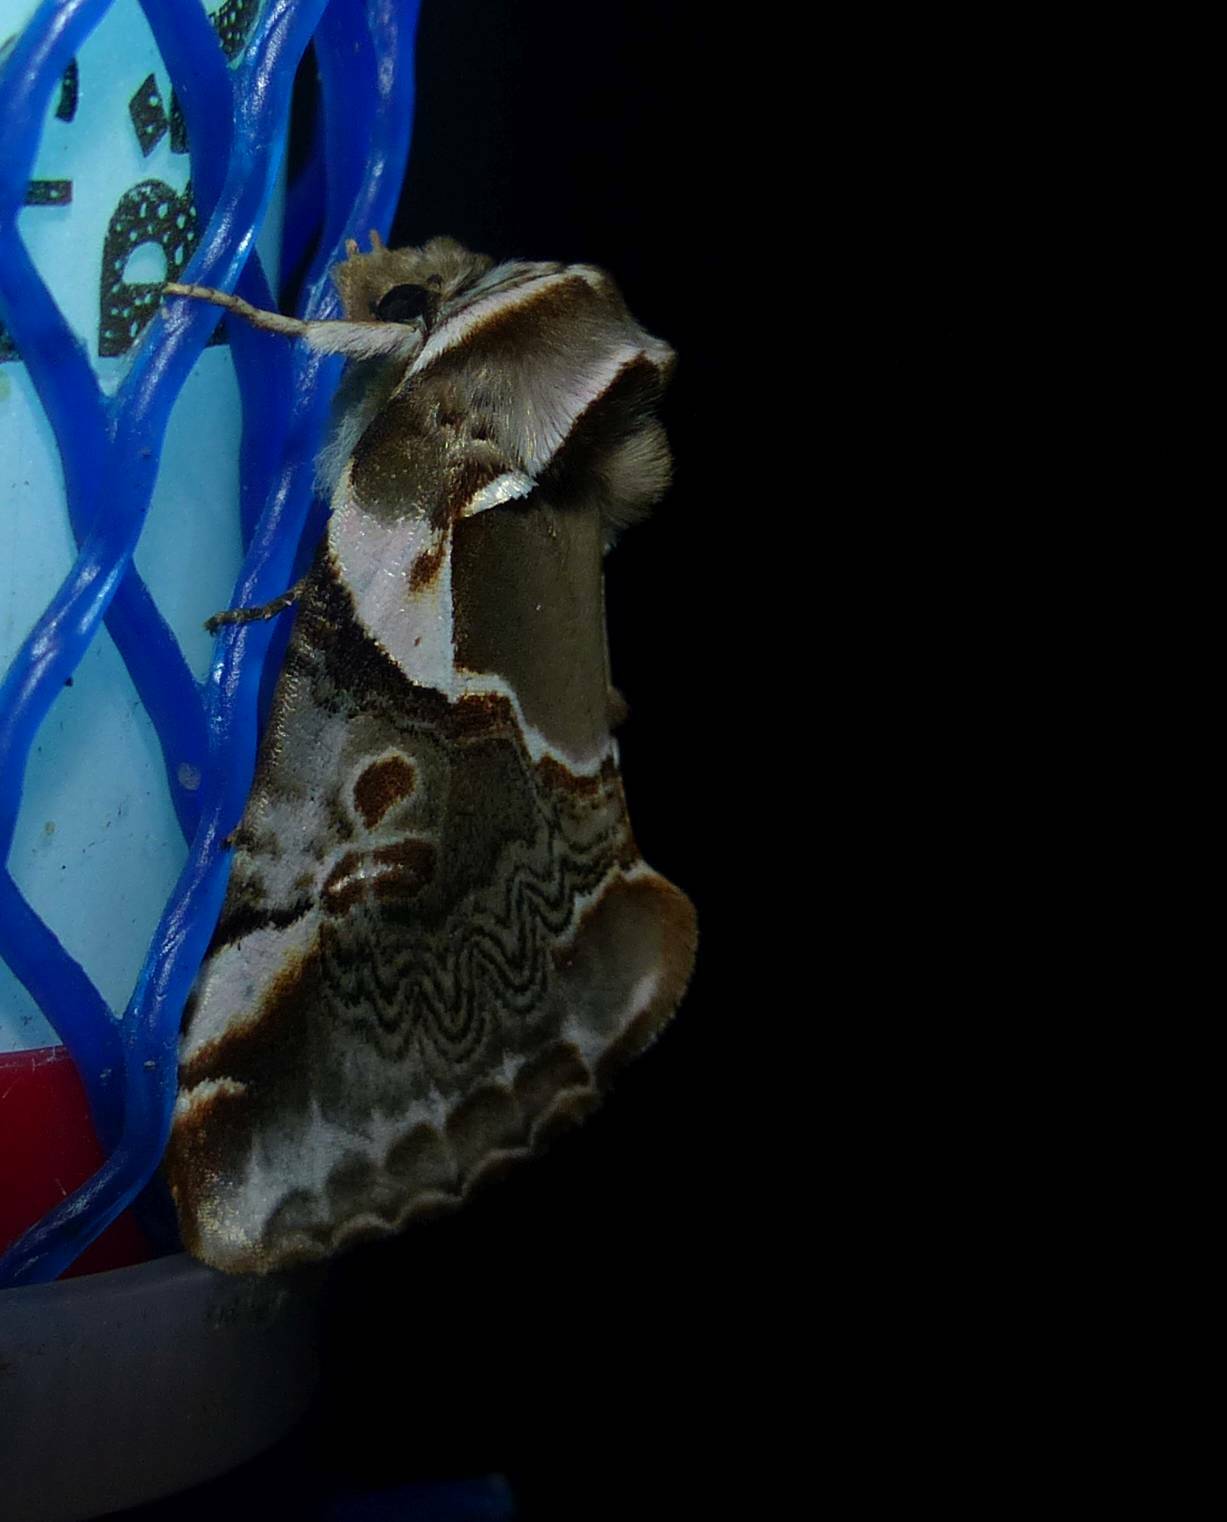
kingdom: Animalia
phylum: Arthropoda
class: Insecta
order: Lepidoptera
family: Drepanidae
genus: Habrosyne
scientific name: Habrosyne scripta
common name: Lettered habrosyne moth
